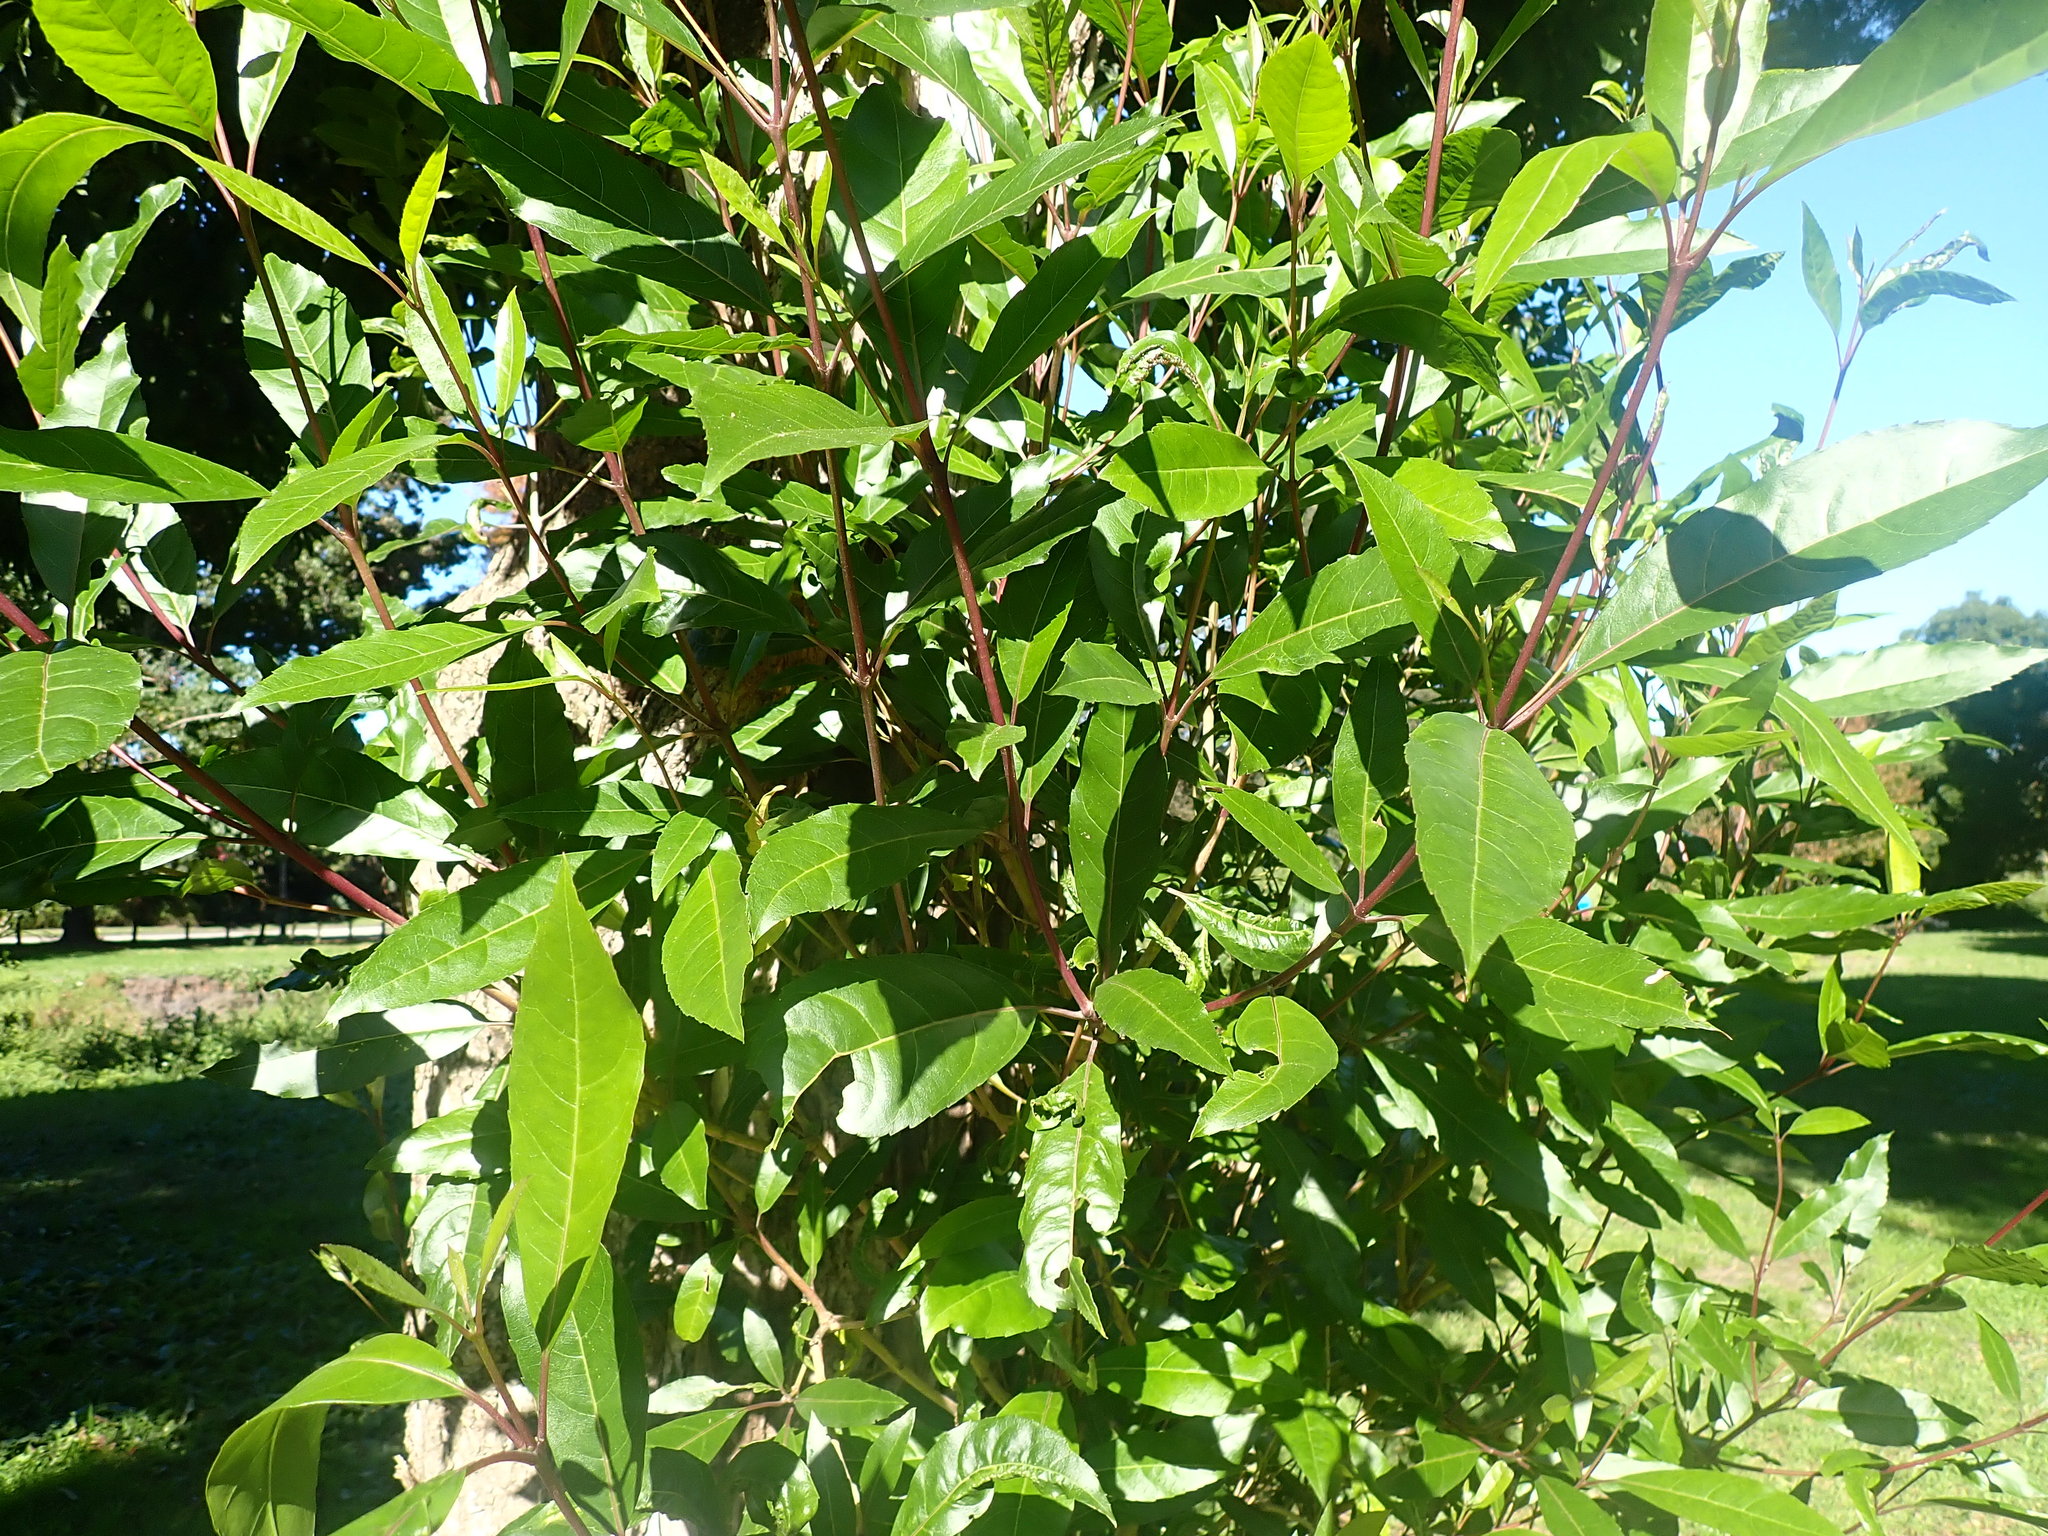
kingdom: Plantae
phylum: Tracheophyta
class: Magnoliopsida
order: Lamiales
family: Stilbaceae
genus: Nuxia
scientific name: Nuxia floribunda
